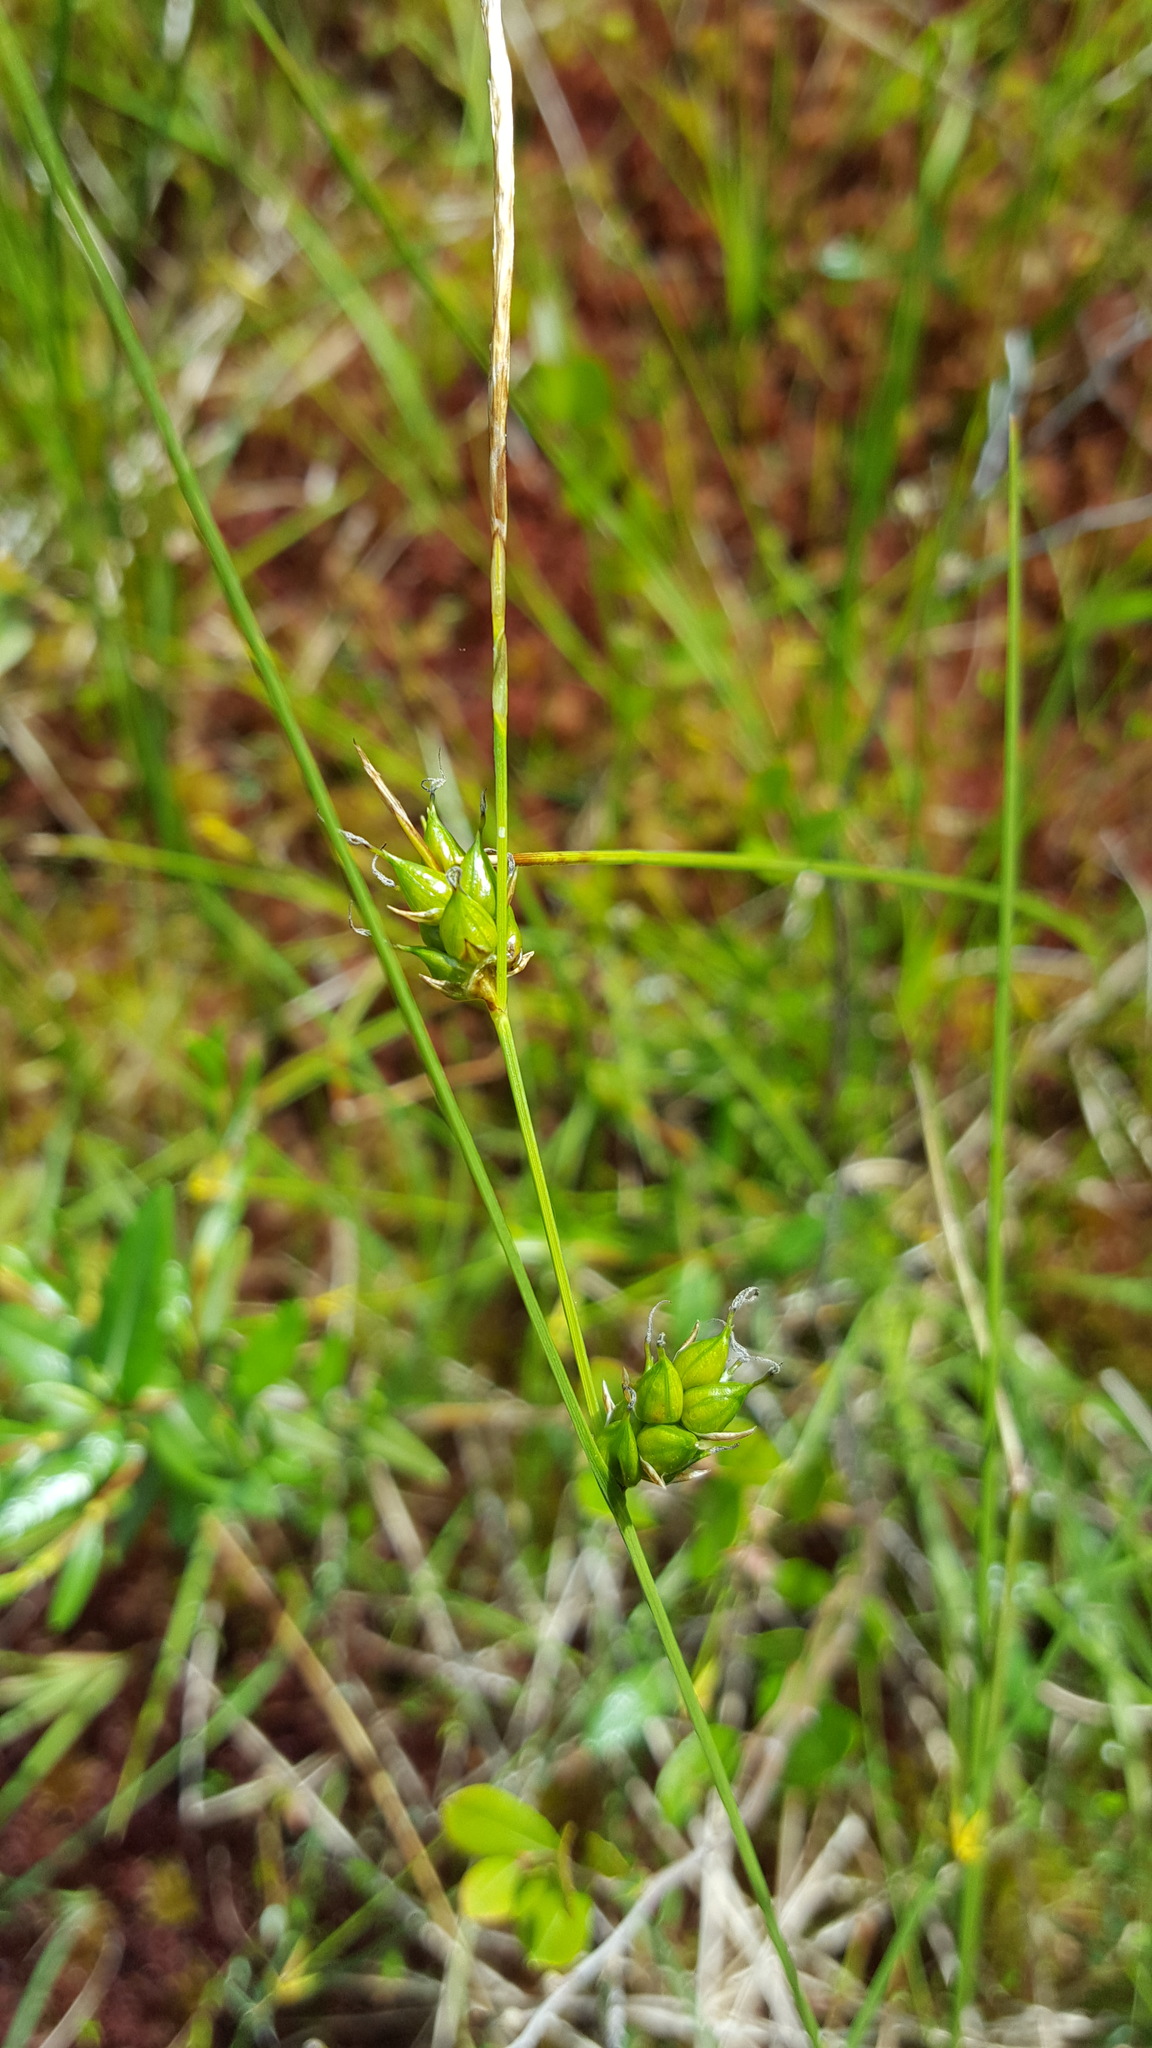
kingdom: Plantae
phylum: Tracheophyta
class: Liliopsida
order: Poales
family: Cyperaceae
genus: Carex
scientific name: Carex oligosperma
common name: Few-seed sedge
